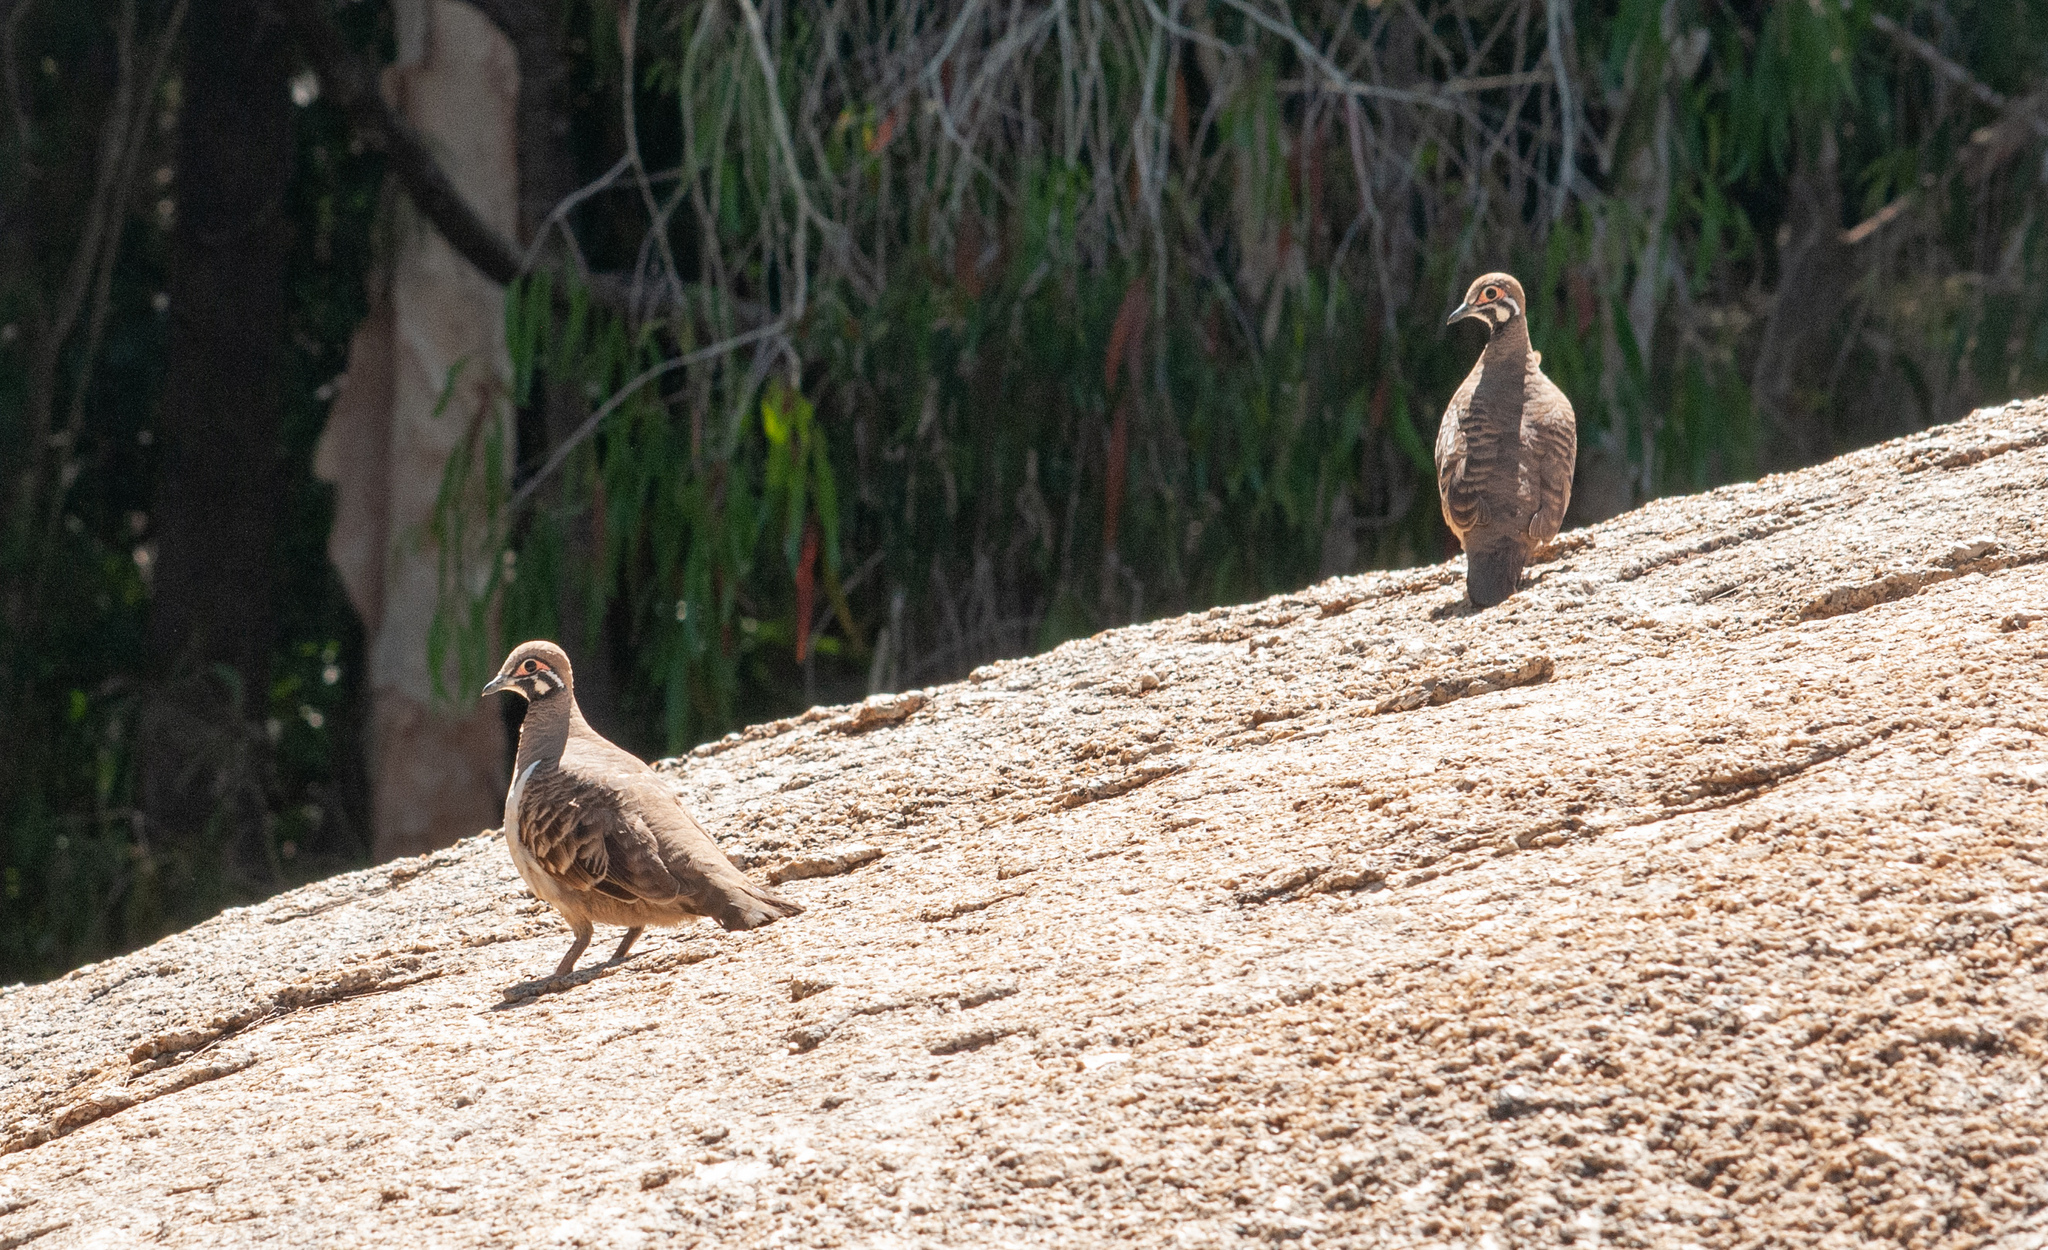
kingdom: Animalia
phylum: Chordata
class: Aves
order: Columbiformes
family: Columbidae
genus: Geophaps
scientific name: Geophaps scripta
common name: Squatter pigeon
